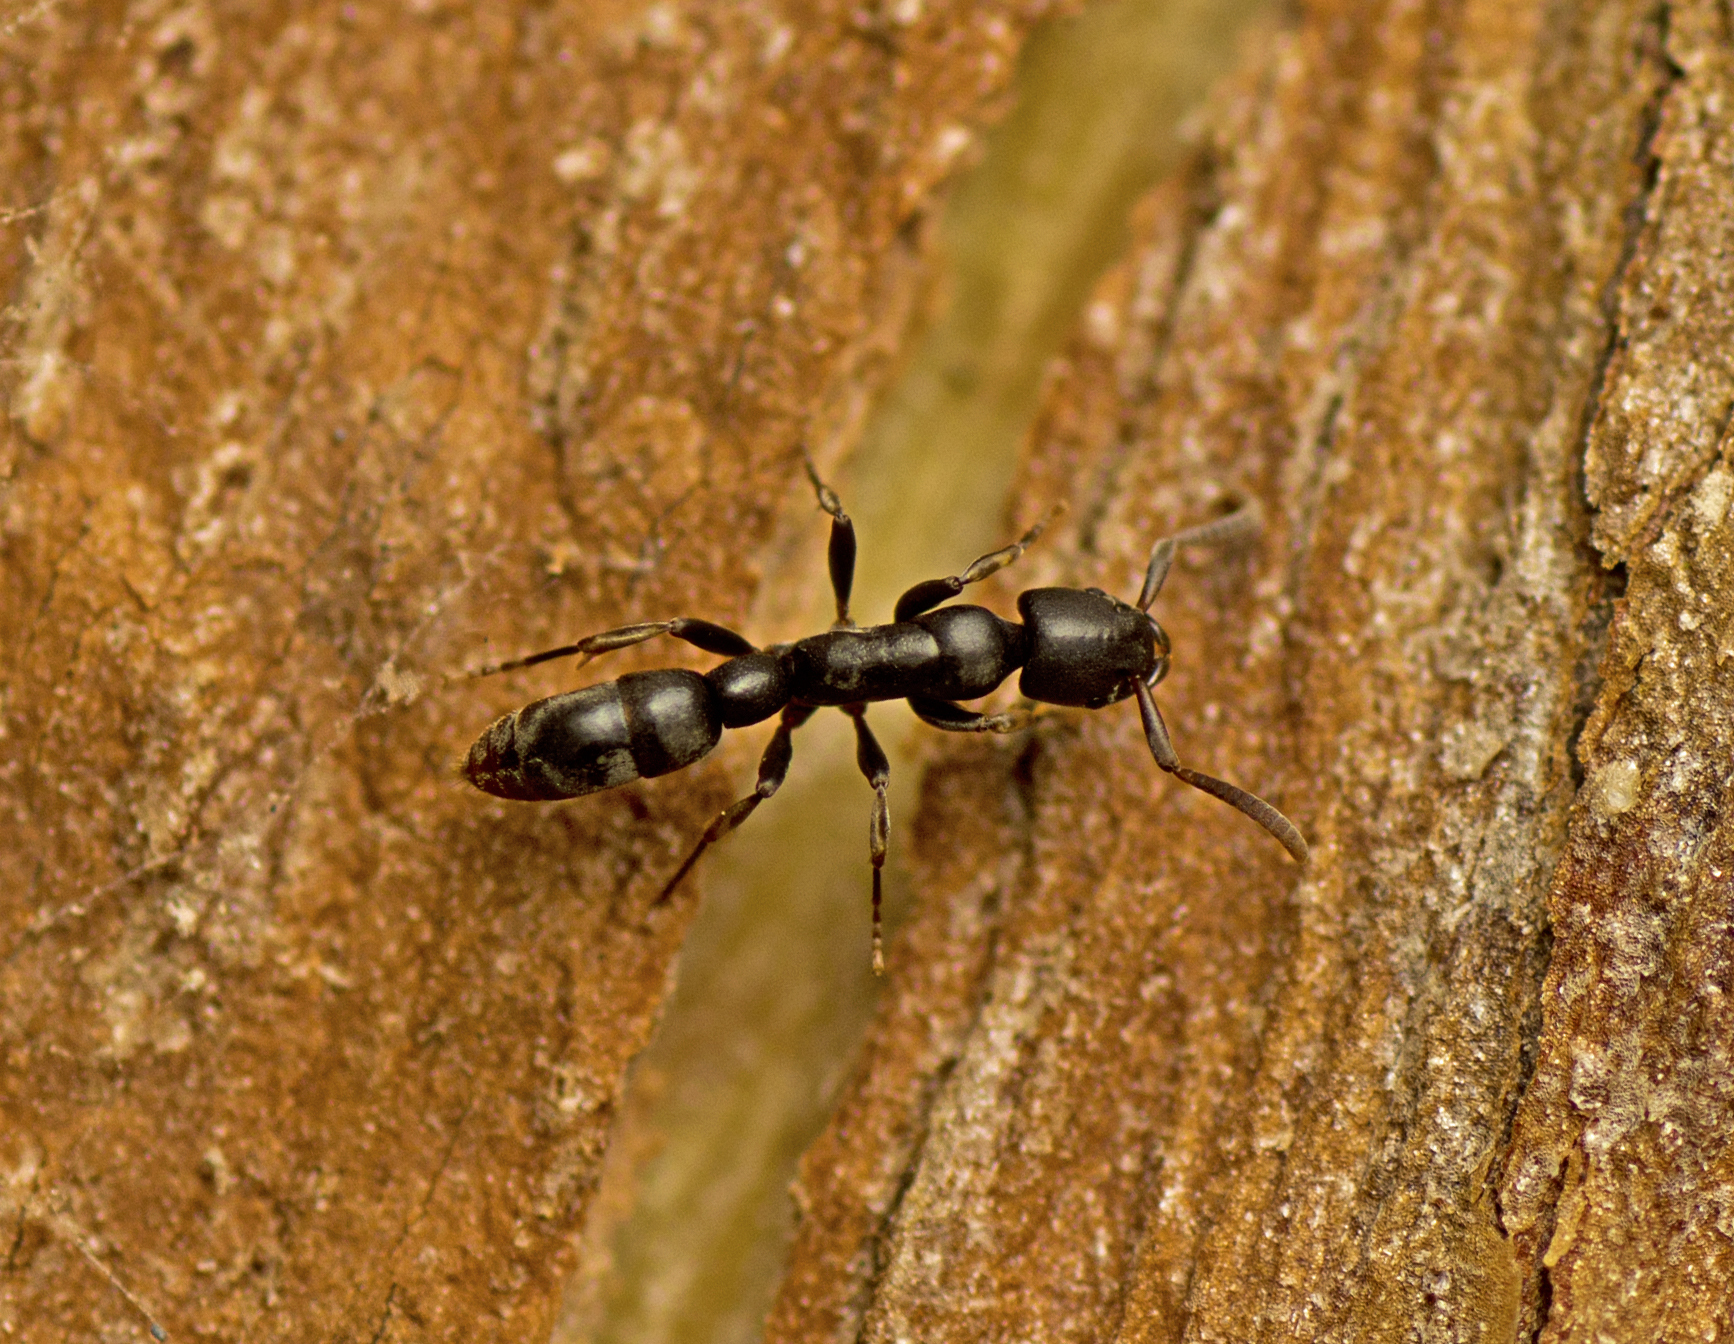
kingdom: Animalia
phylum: Arthropoda
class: Insecta
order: Hymenoptera
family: Formicidae
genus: Platythyrea
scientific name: Platythyrea parallela
